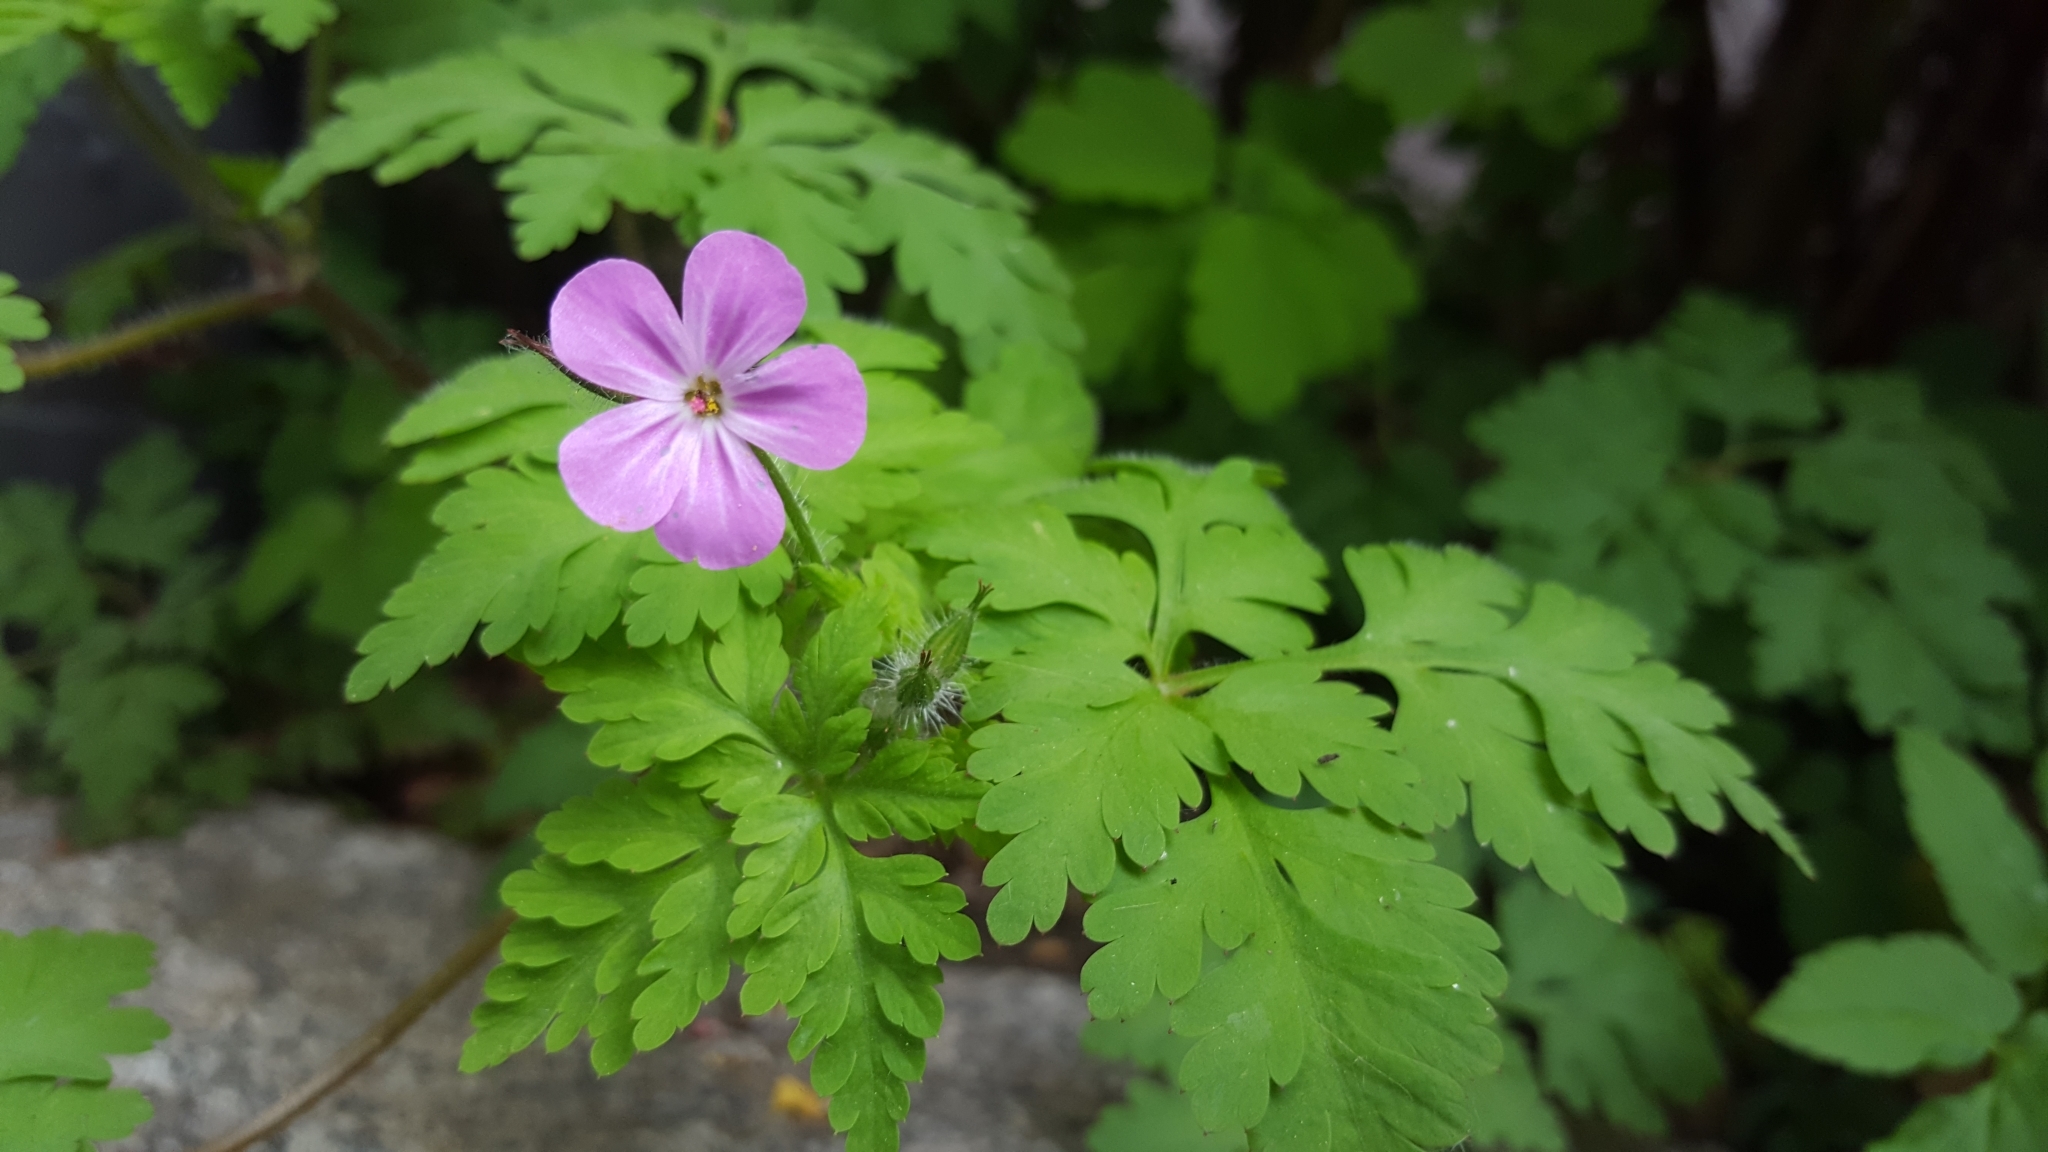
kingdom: Plantae
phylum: Tracheophyta
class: Magnoliopsida
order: Geraniales
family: Geraniaceae
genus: Geranium
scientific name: Geranium robertianum
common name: Herb-robert
